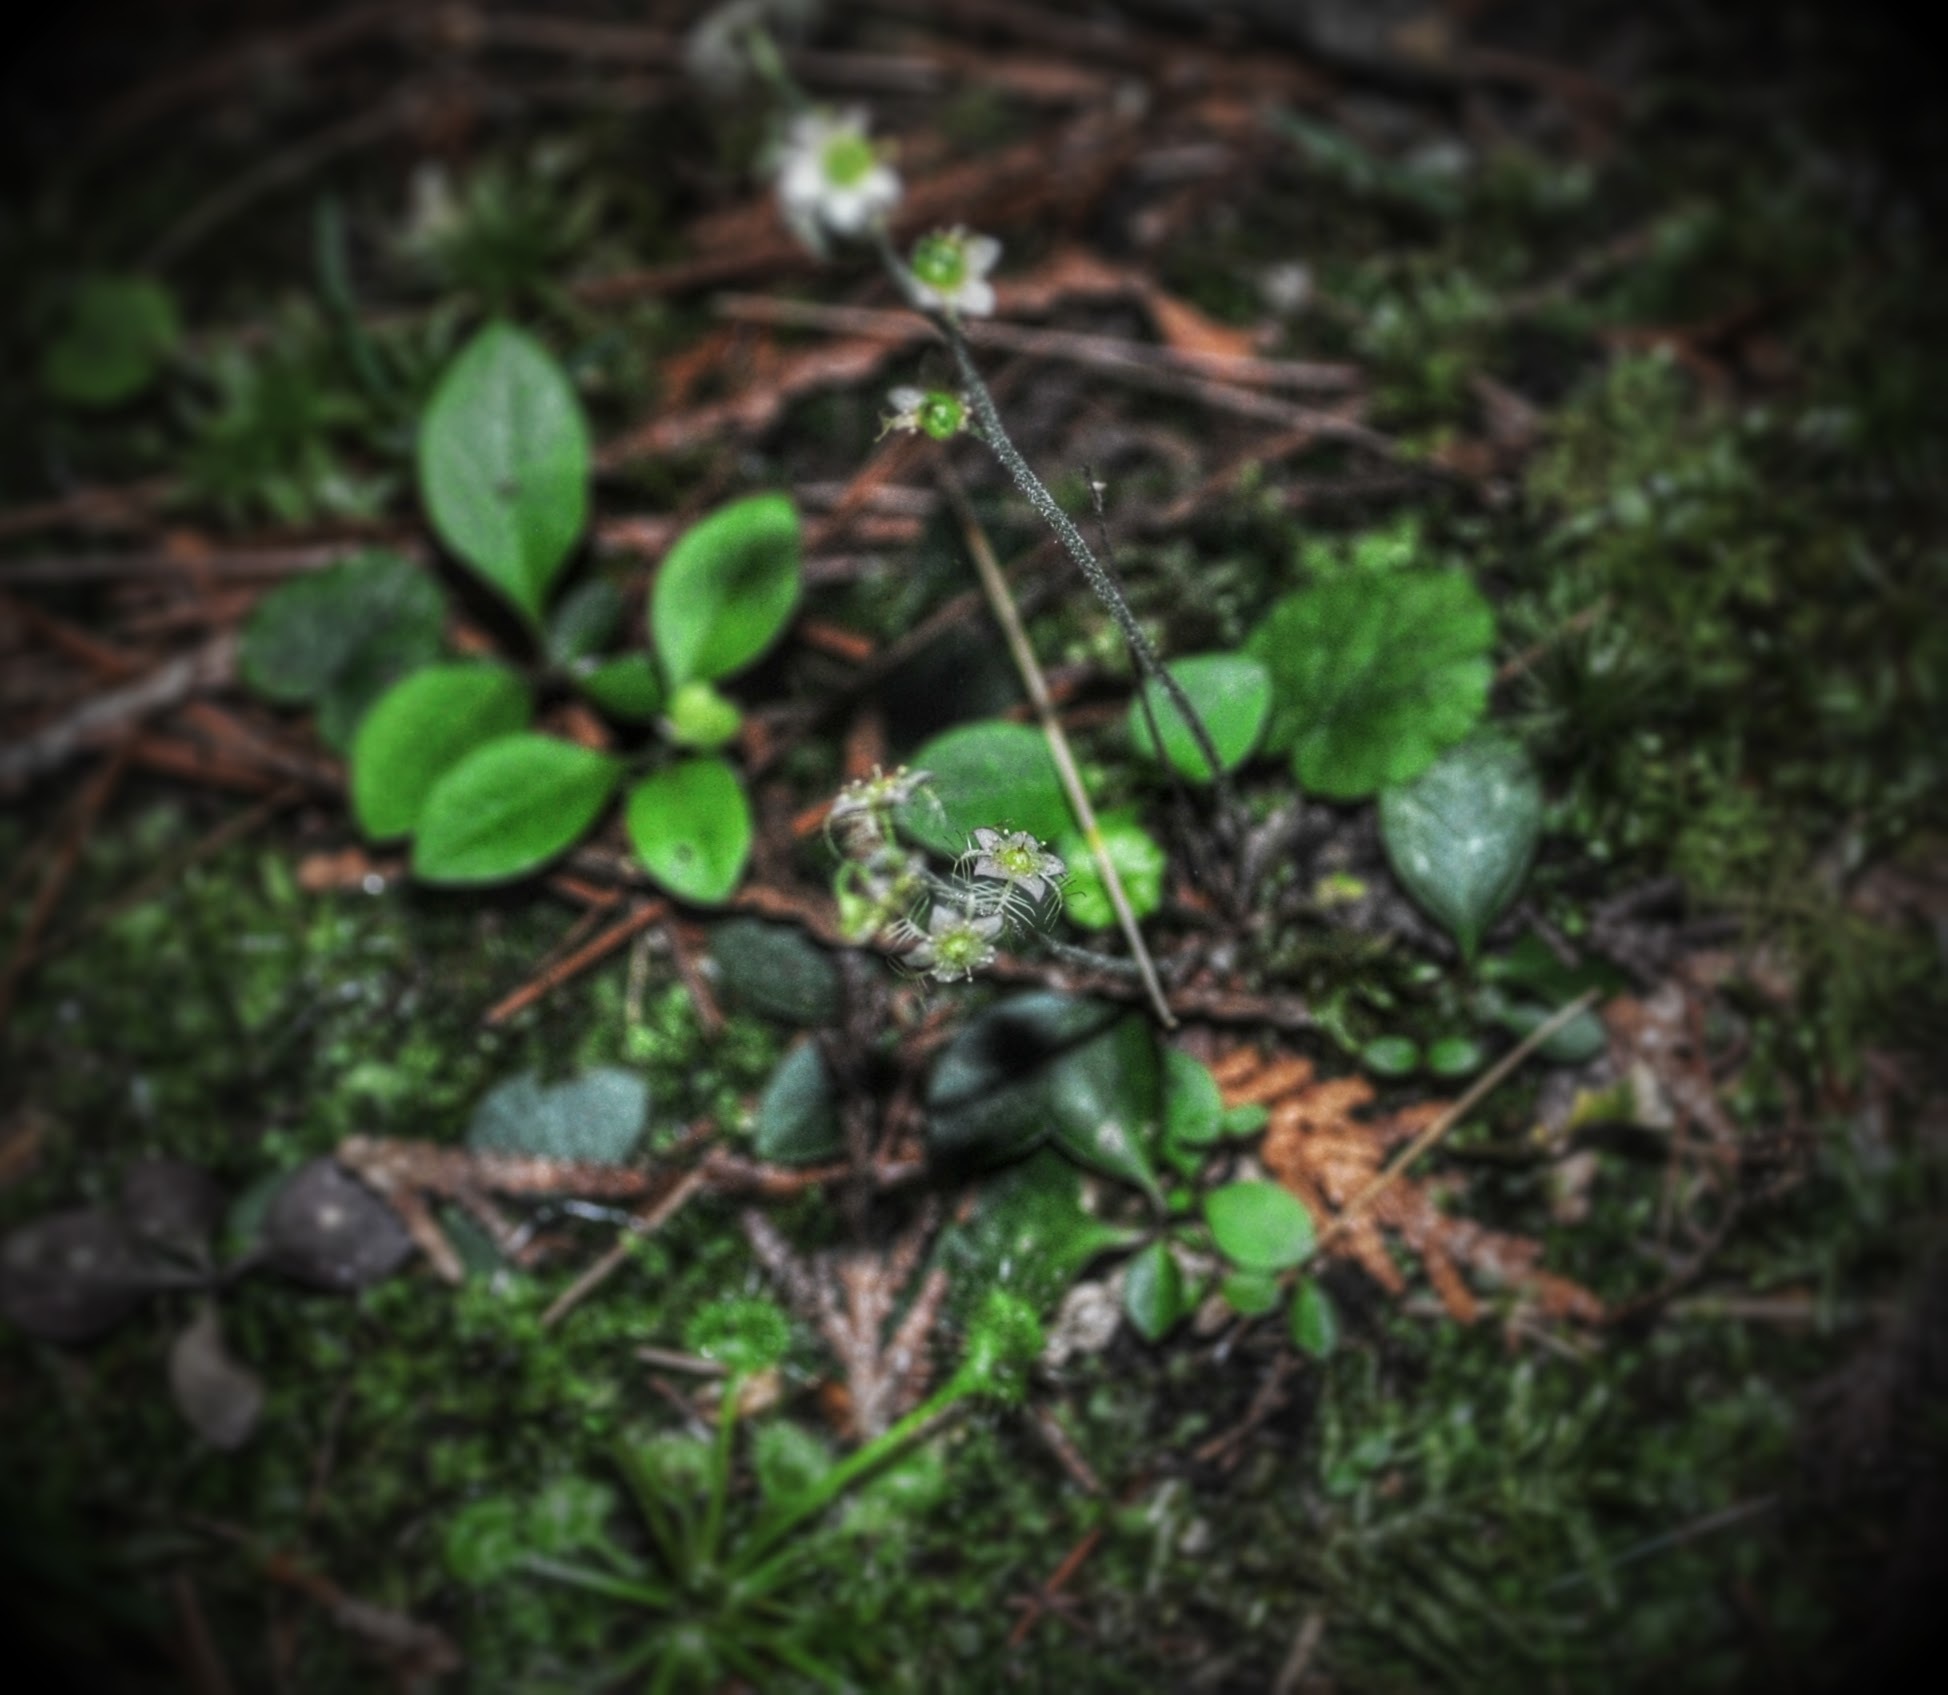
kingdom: Plantae
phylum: Tracheophyta
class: Magnoliopsida
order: Saxifragales
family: Saxifragaceae
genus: Mitella
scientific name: Mitella nuda
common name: Bare-stemmed bishop's-cap
